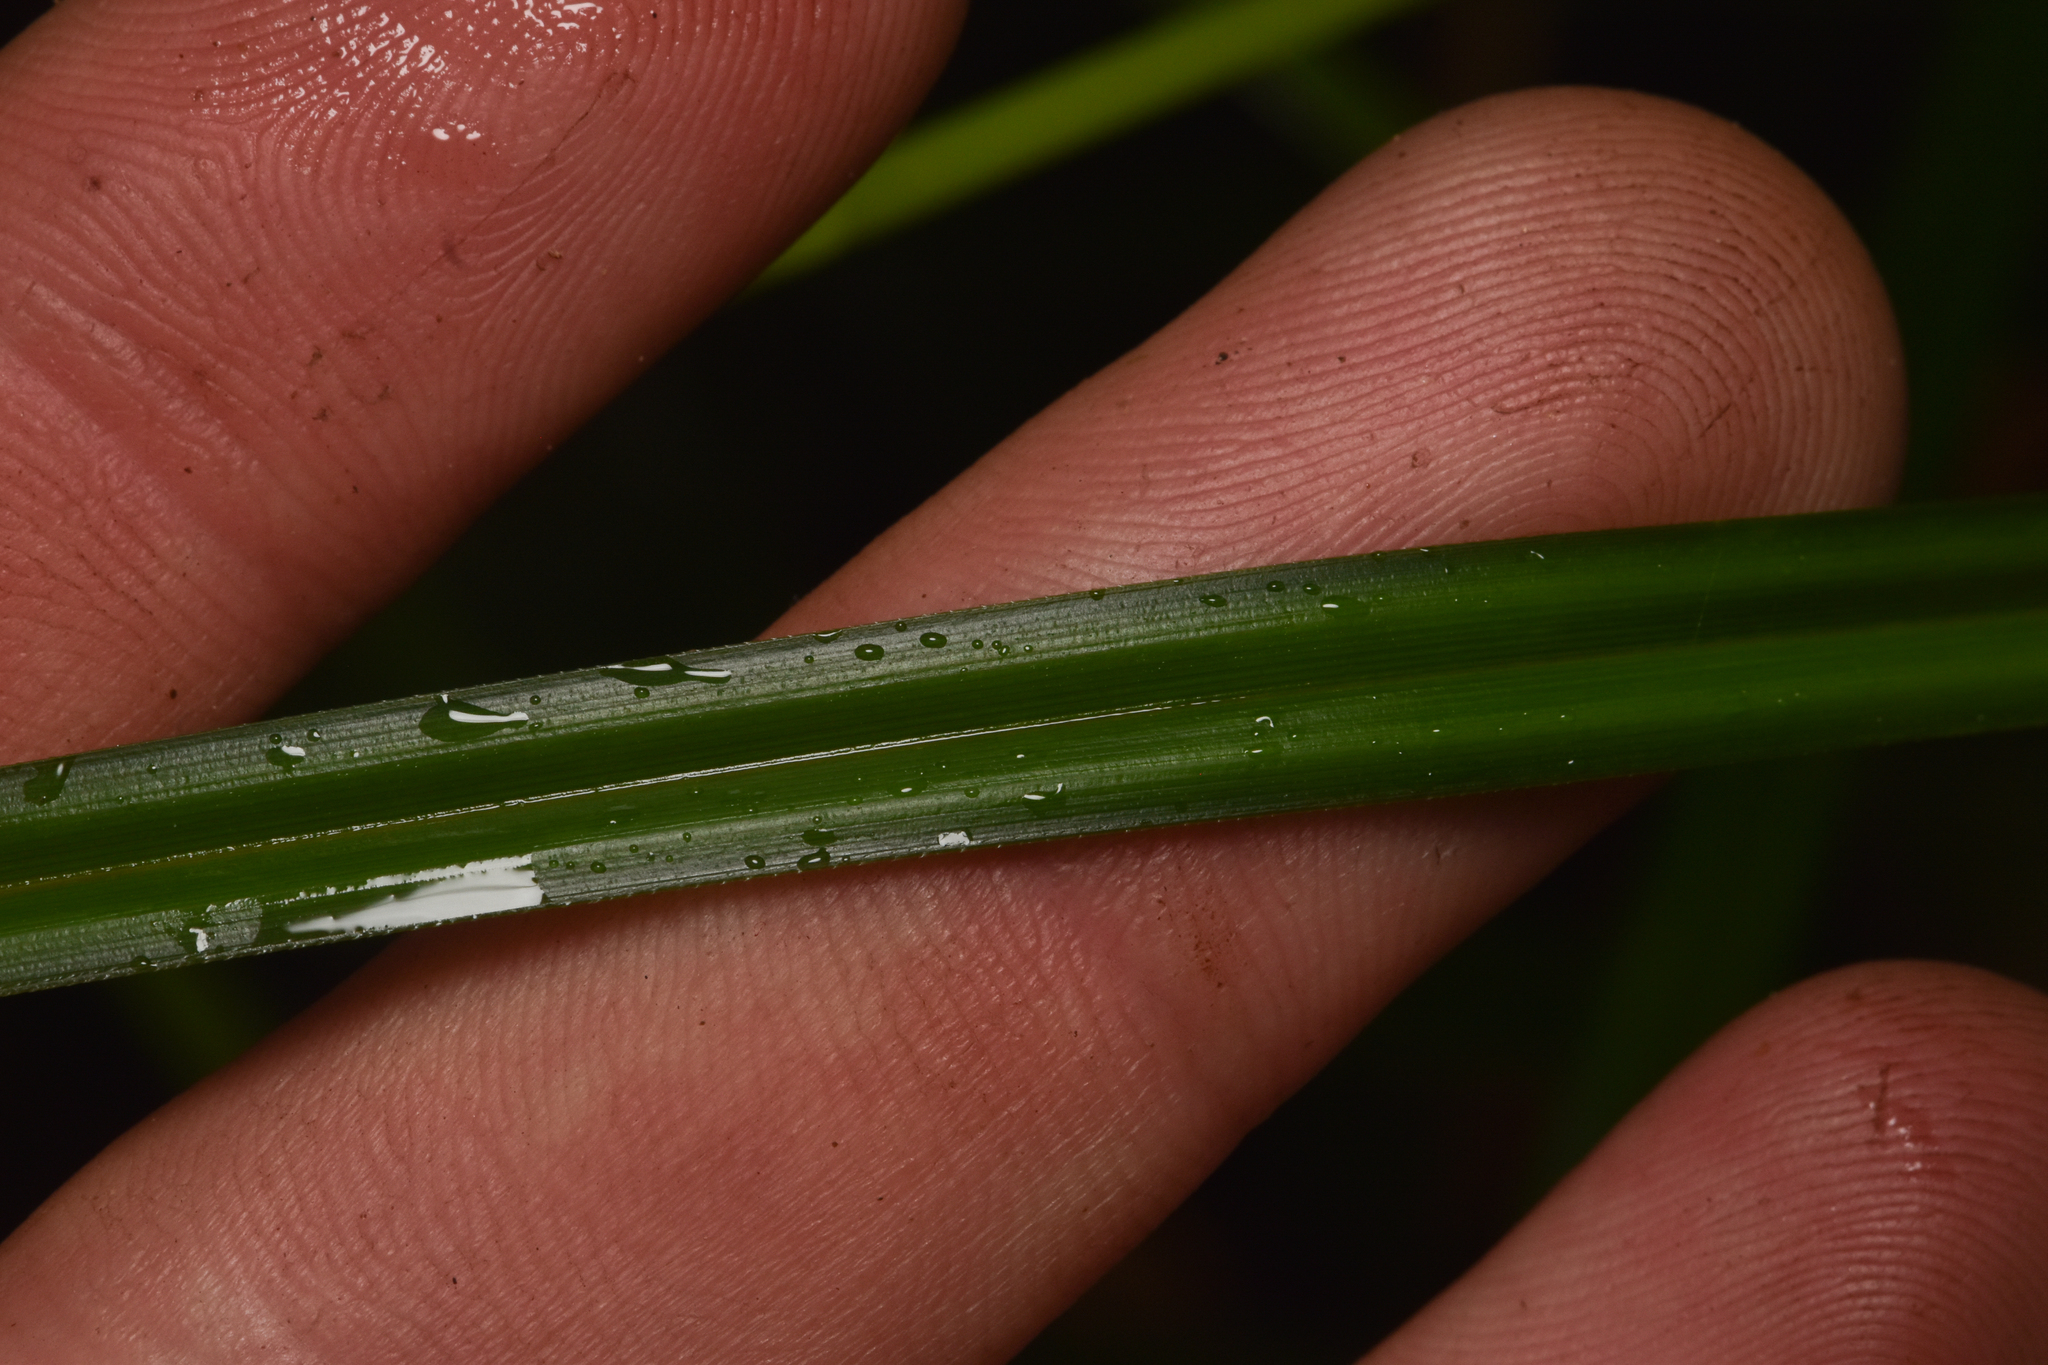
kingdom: Plantae
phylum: Tracheophyta
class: Liliopsida
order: Poales
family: Cyperaceae
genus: Carex
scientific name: Carex obnupta
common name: Slough sedge
